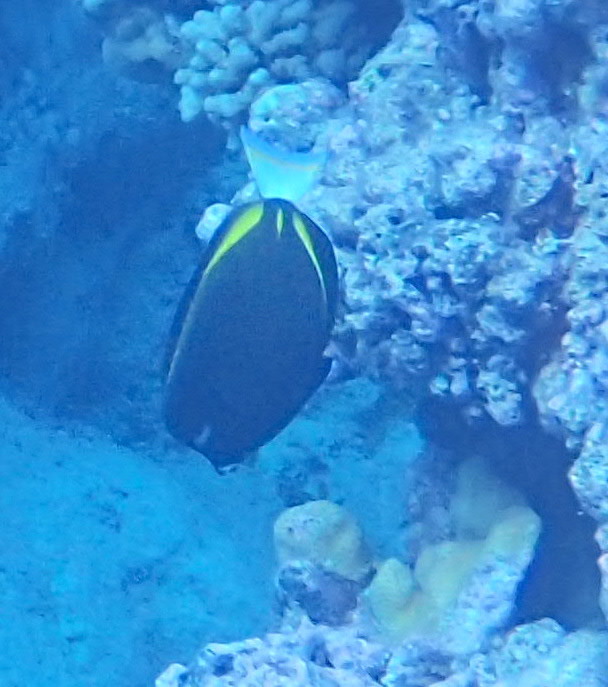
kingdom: Animalia
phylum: Chordata
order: Perciformes
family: Acanthuridae
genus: Acanthurus
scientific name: Acanthurus nigricans
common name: Whitecheek surgeonfish
